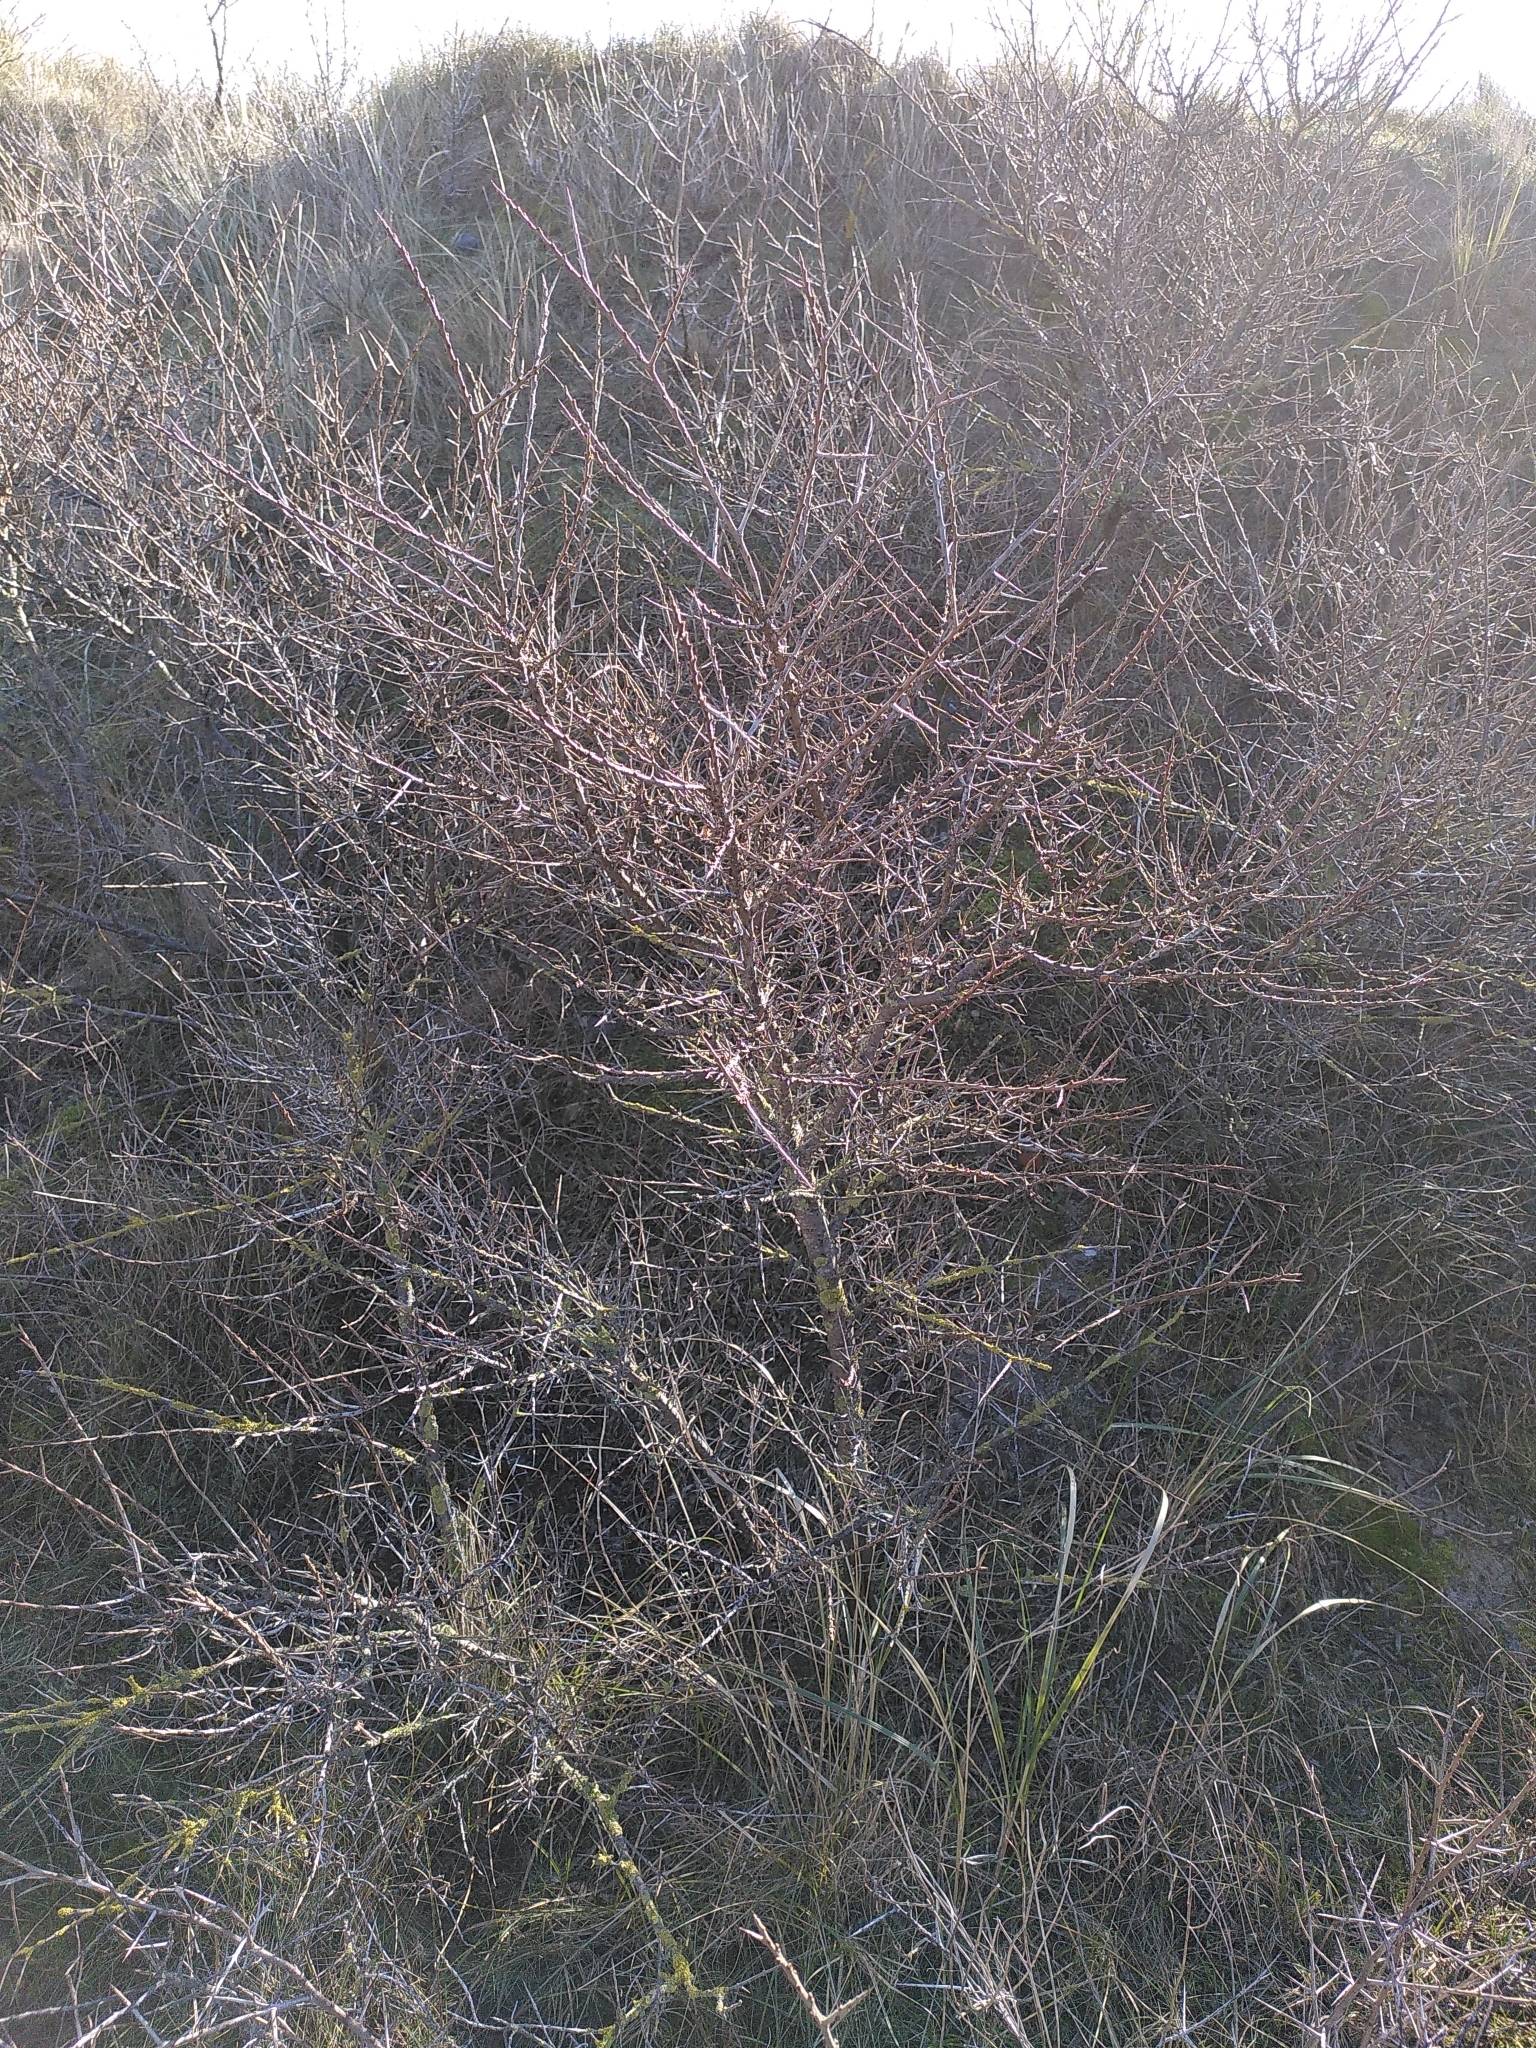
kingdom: Plantae
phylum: Tracheophyta
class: Magnoliopsida
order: Rosales
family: Elaeagnaceae
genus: Hippophae
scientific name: Hippophae rhamnoides
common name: Sea-buckthorn
